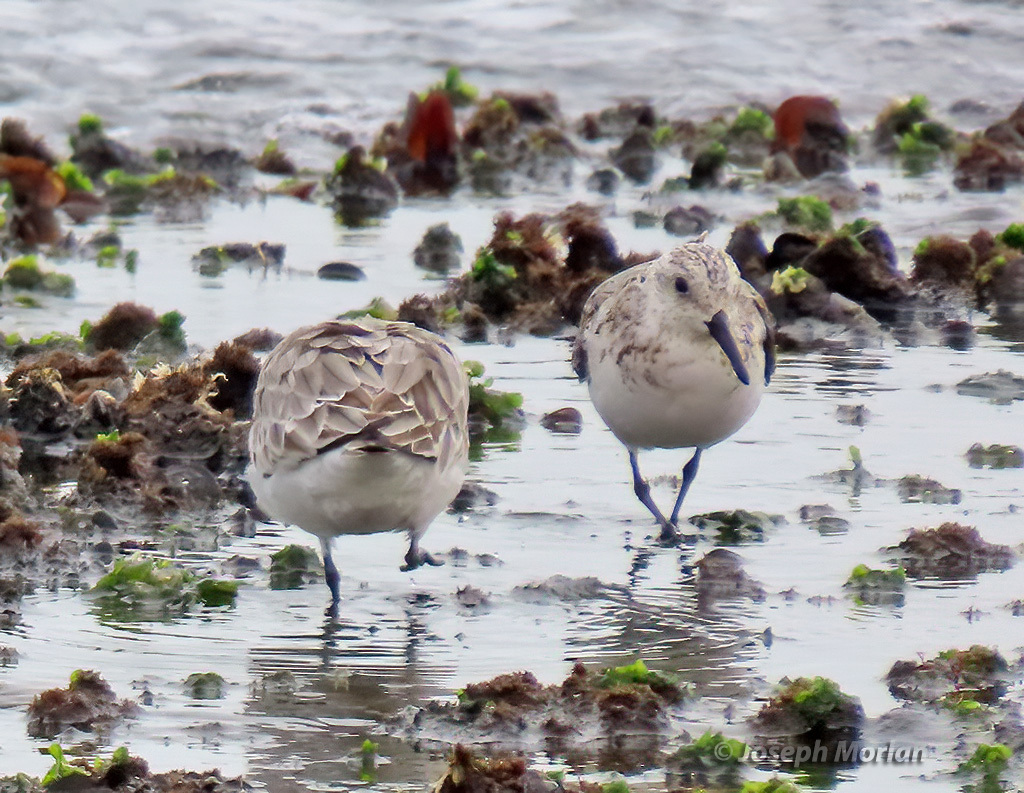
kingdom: Animalia
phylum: Chordata
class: Aves
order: Charadriiformes
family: Scolopacidae
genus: Calidris
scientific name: Calidris alba
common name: Sanderling
